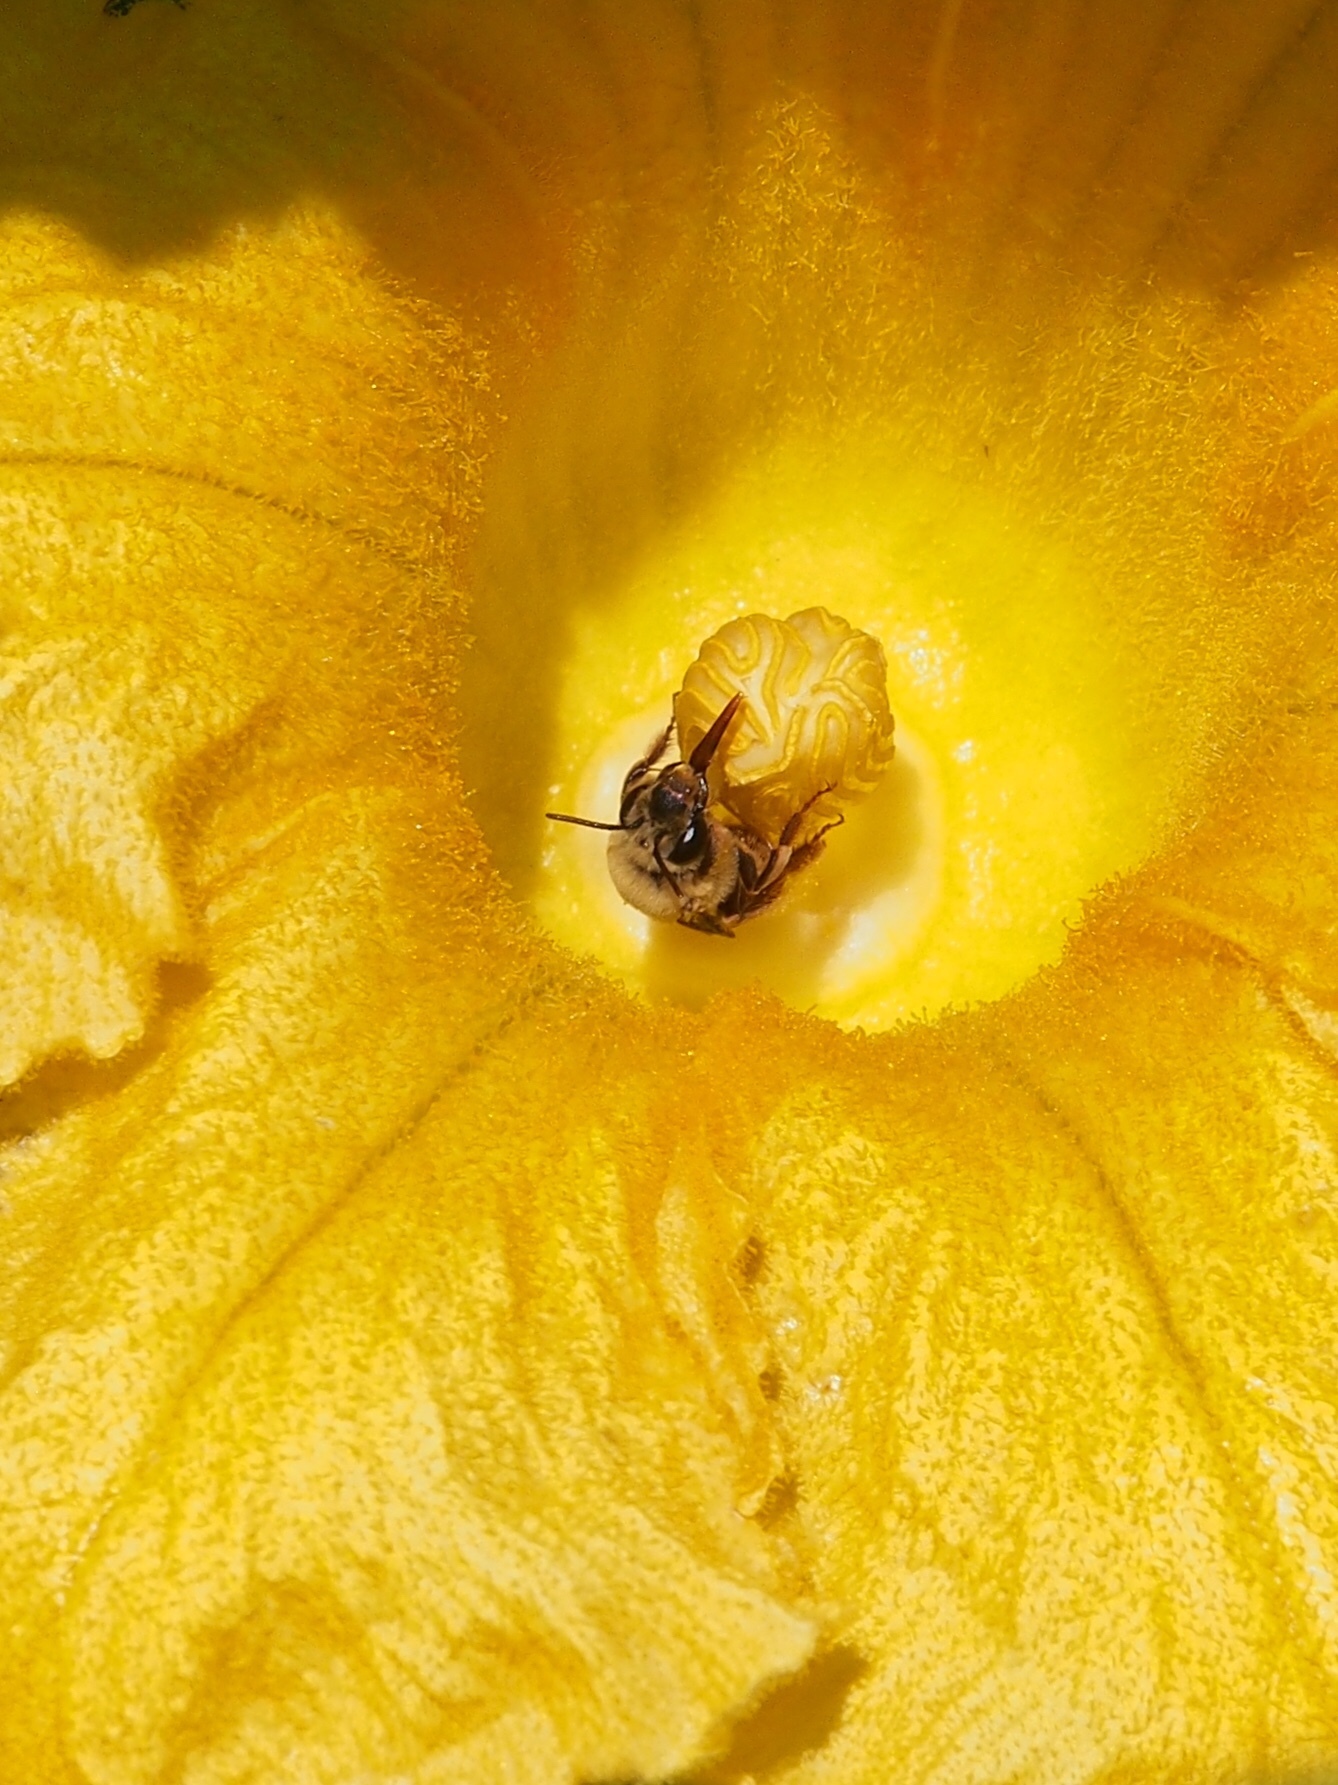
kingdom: Animalia
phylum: Arthropoda
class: Insecta
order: Hymenoptera
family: Apidae
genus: Peponapis
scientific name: Peponapis pruinosa
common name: Pruinose squash bee
